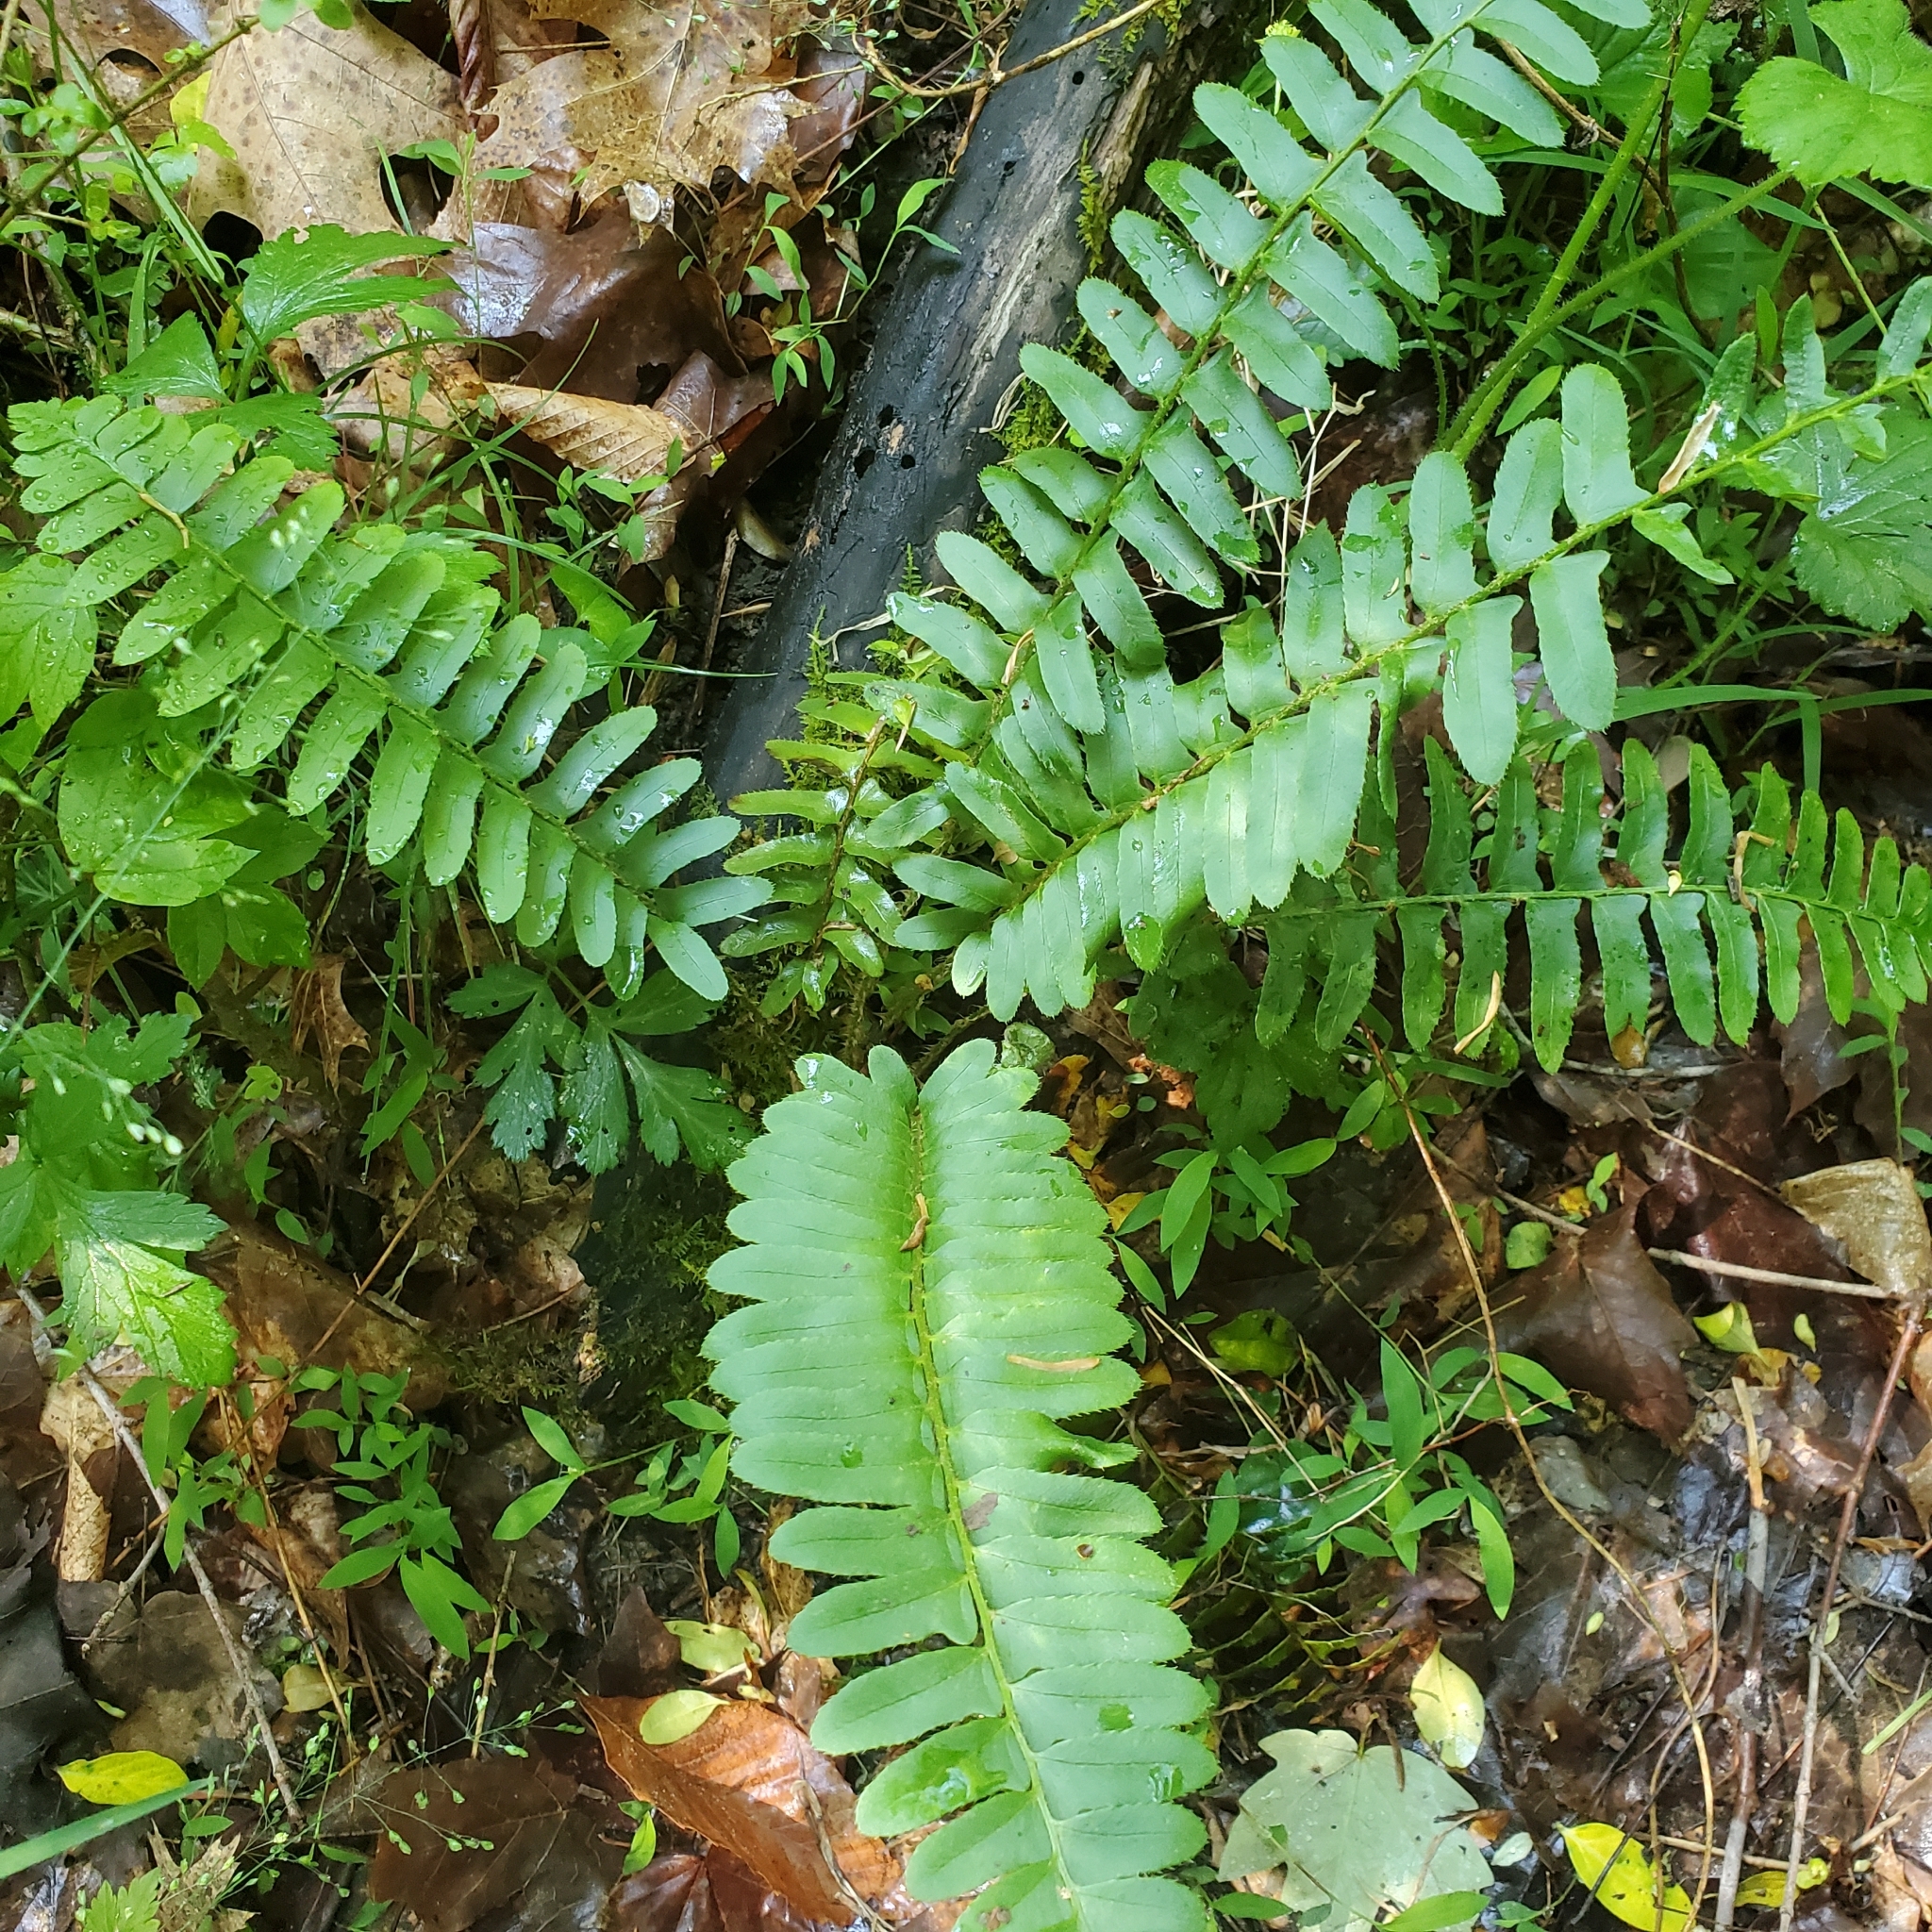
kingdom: Plantae
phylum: Tracheophyta
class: Polypodiopsida
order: Polypodiales
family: Dryopteridaceae
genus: Polystichum
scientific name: Polystichum acrostichoides
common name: Christmas fern
